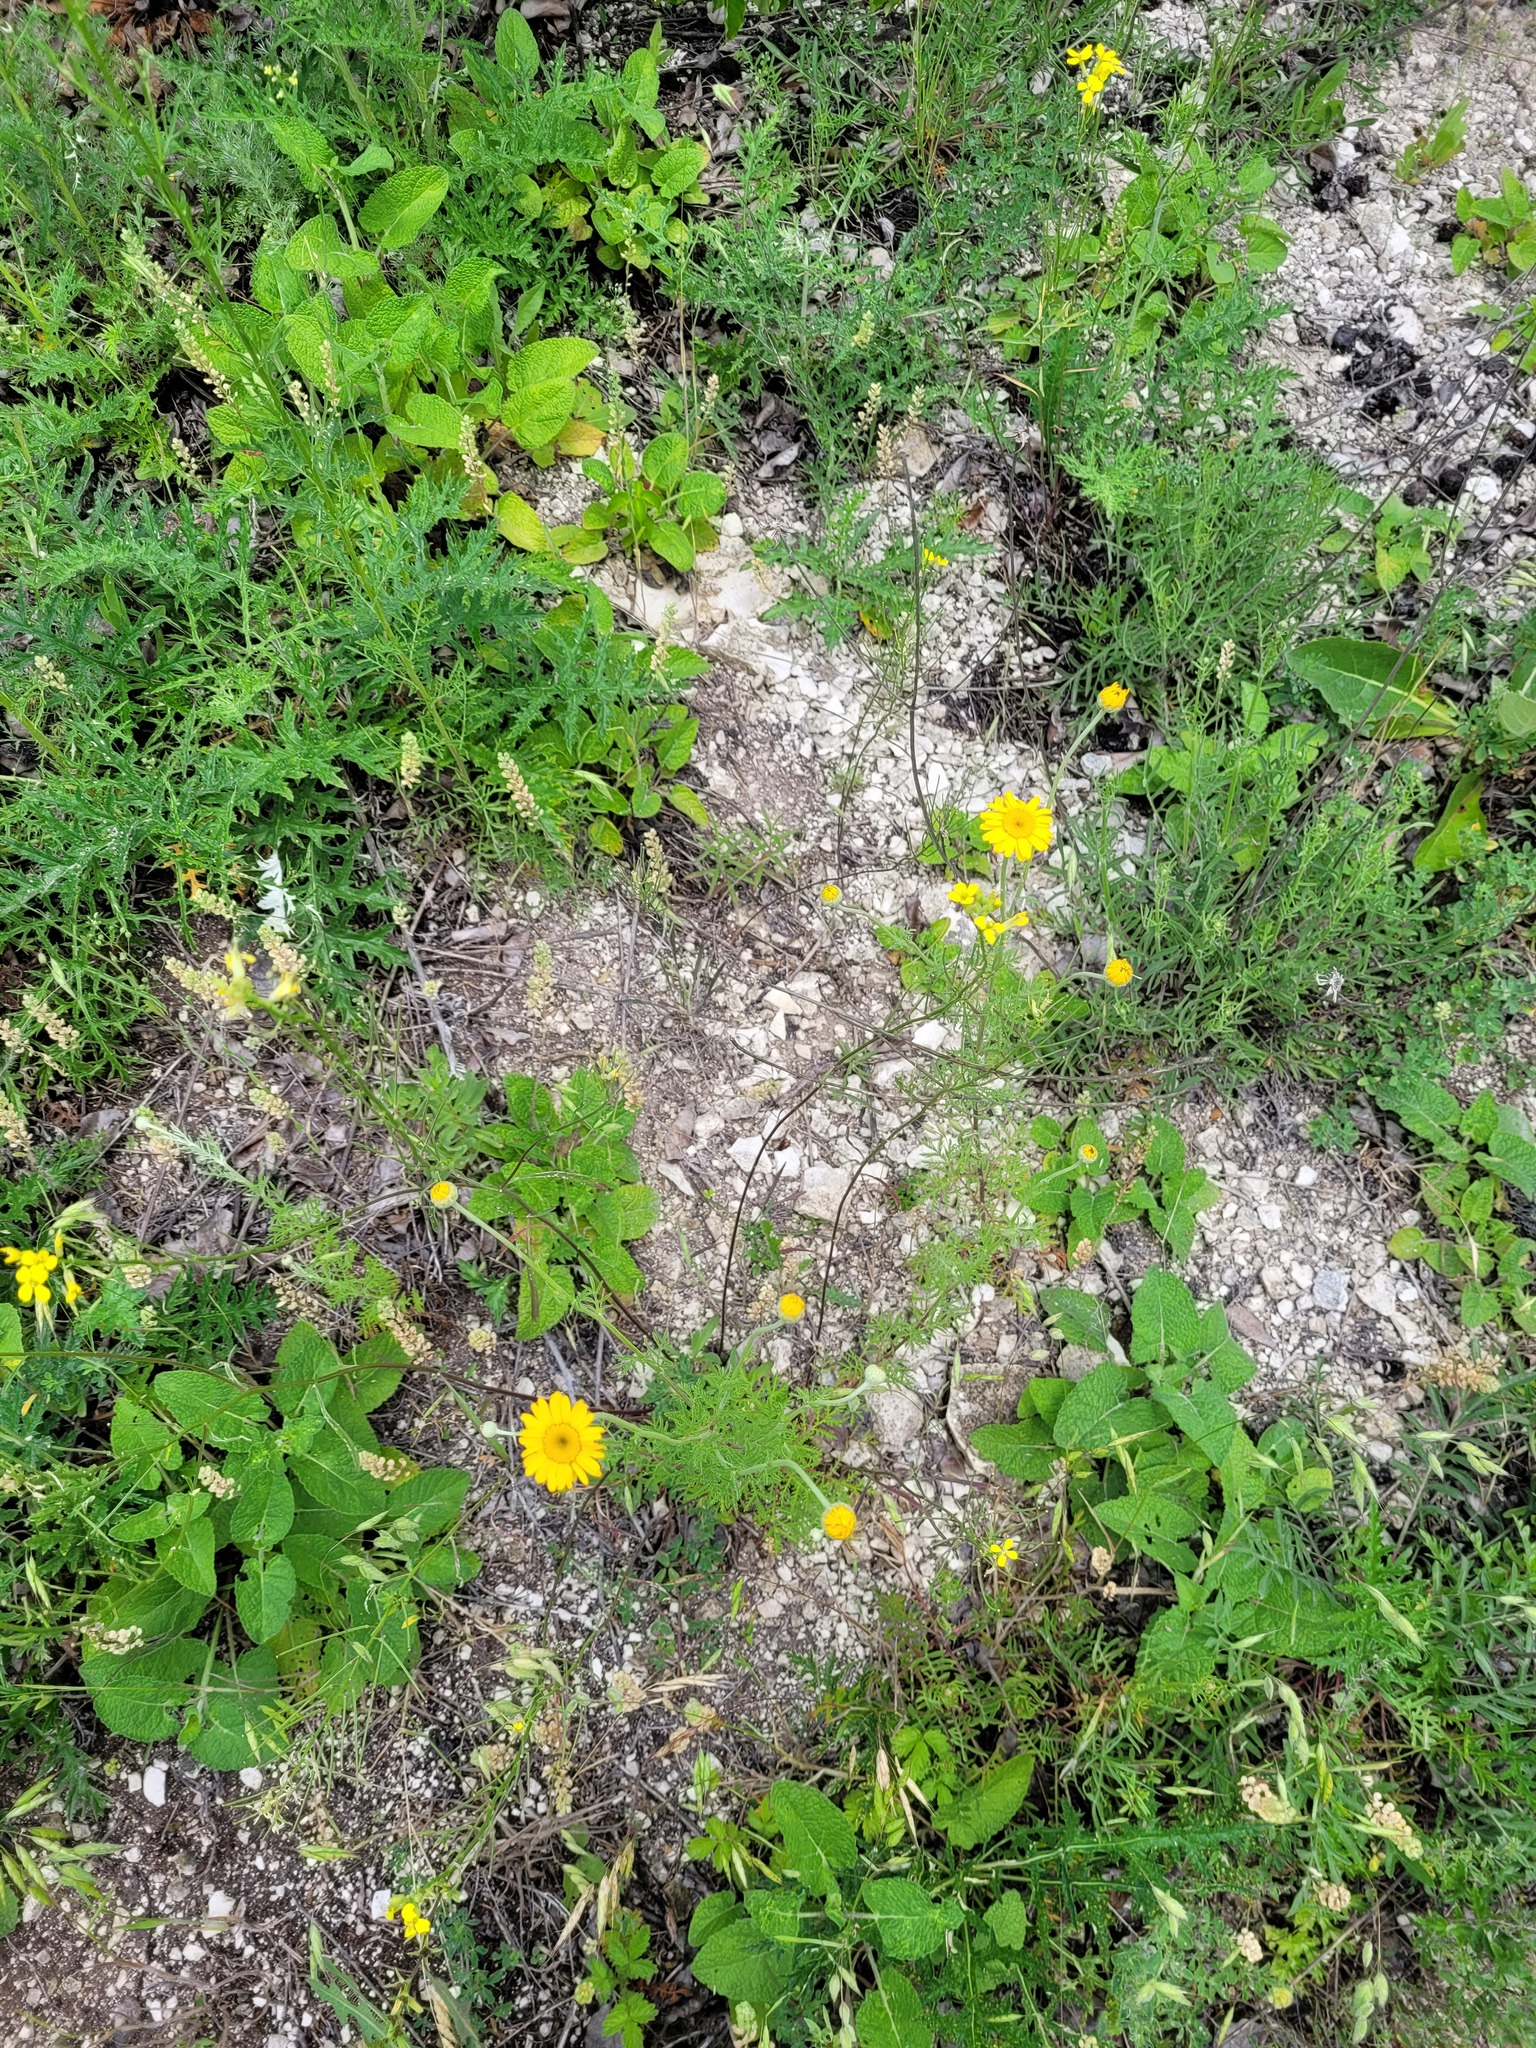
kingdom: Plantae
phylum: Tracheophyta
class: Magnoliopsida
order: Asterales
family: Asteraceae
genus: Cota
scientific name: Cota tinctoria
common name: Golden chamomile
